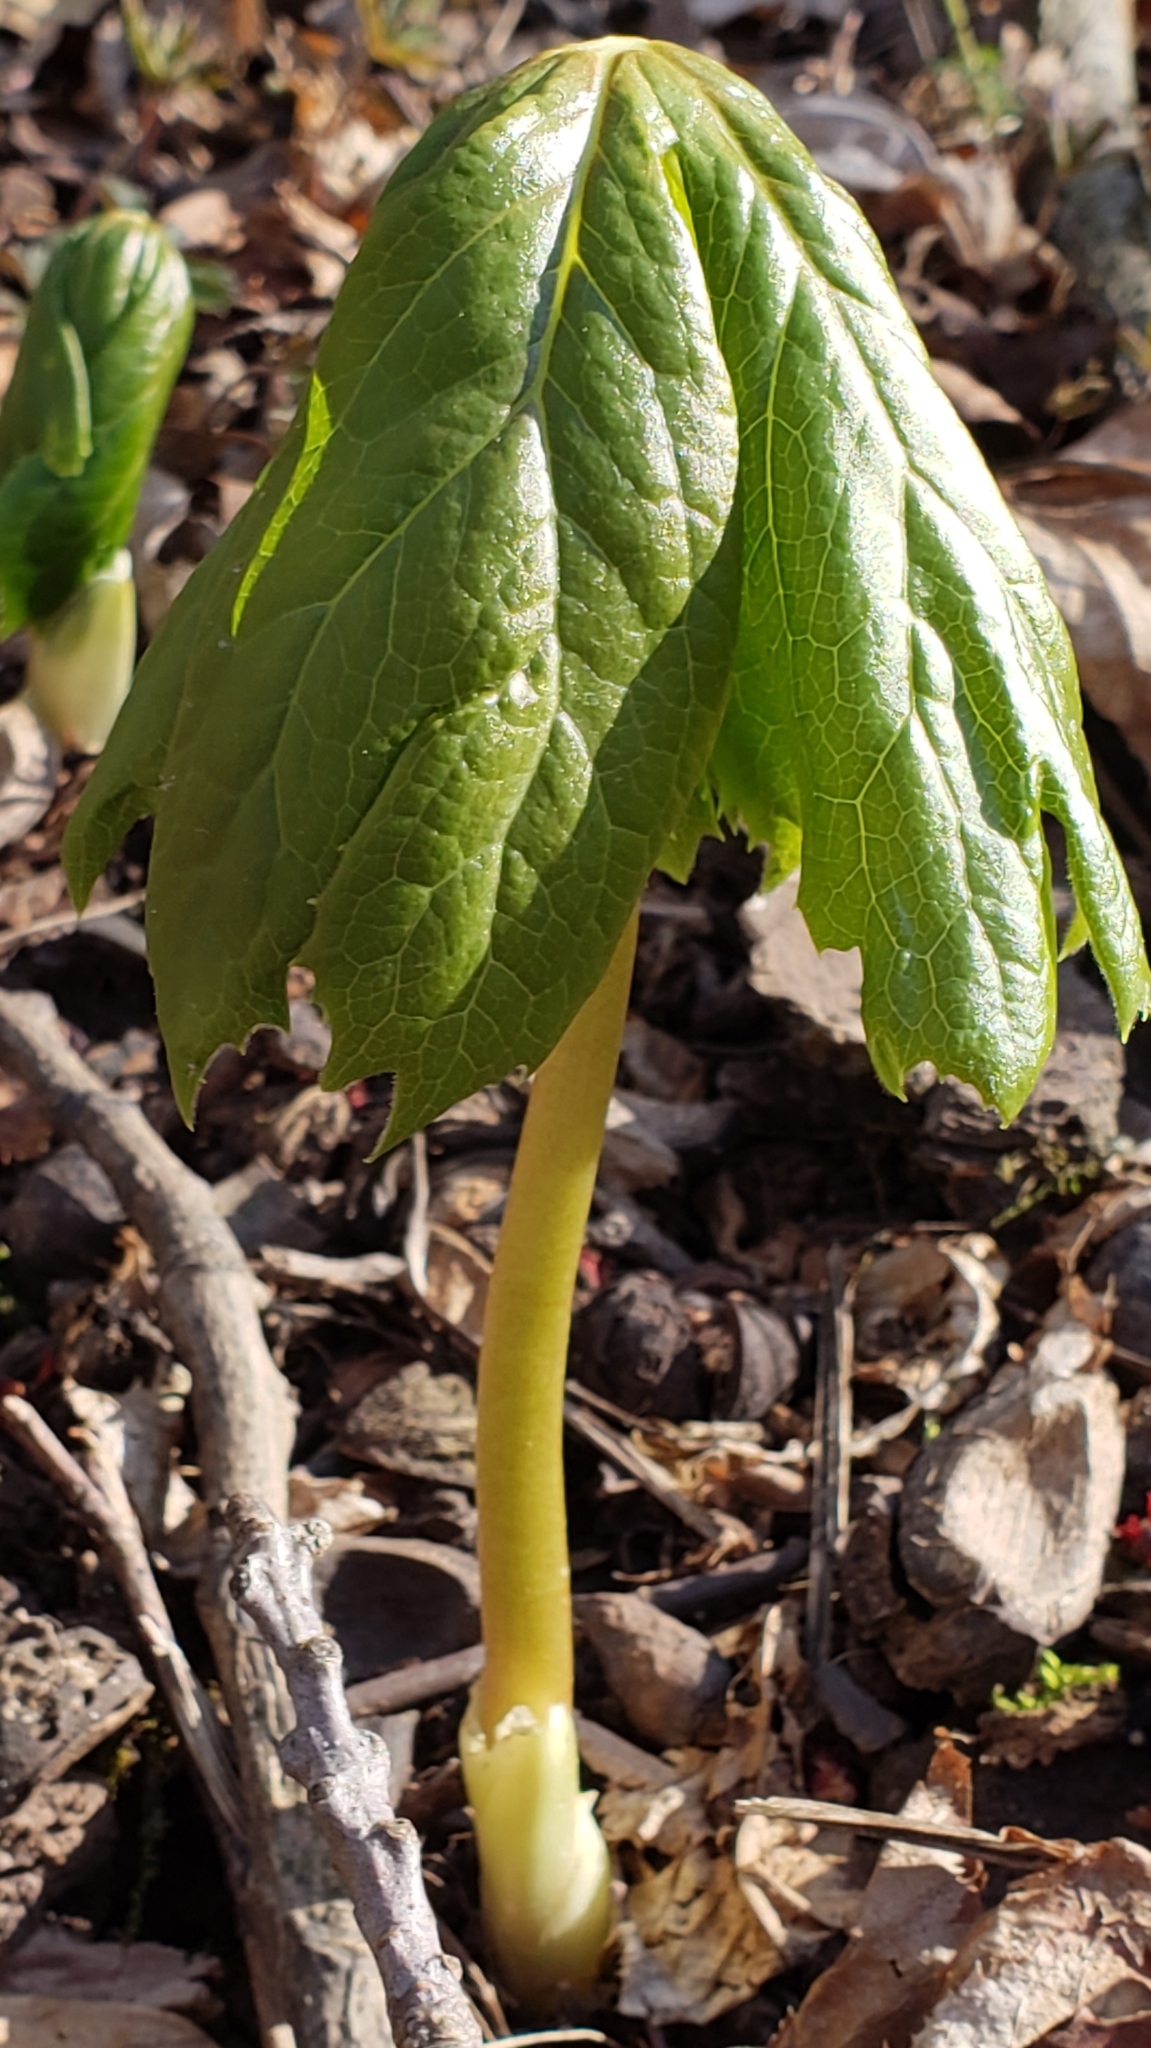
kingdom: Plantae
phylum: Tracheophyta
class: Magnoliopsida
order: Ranunculales
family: Berberidaceae
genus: Podophyllum
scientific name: Podophyllum peltatum
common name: Wild mandrake
